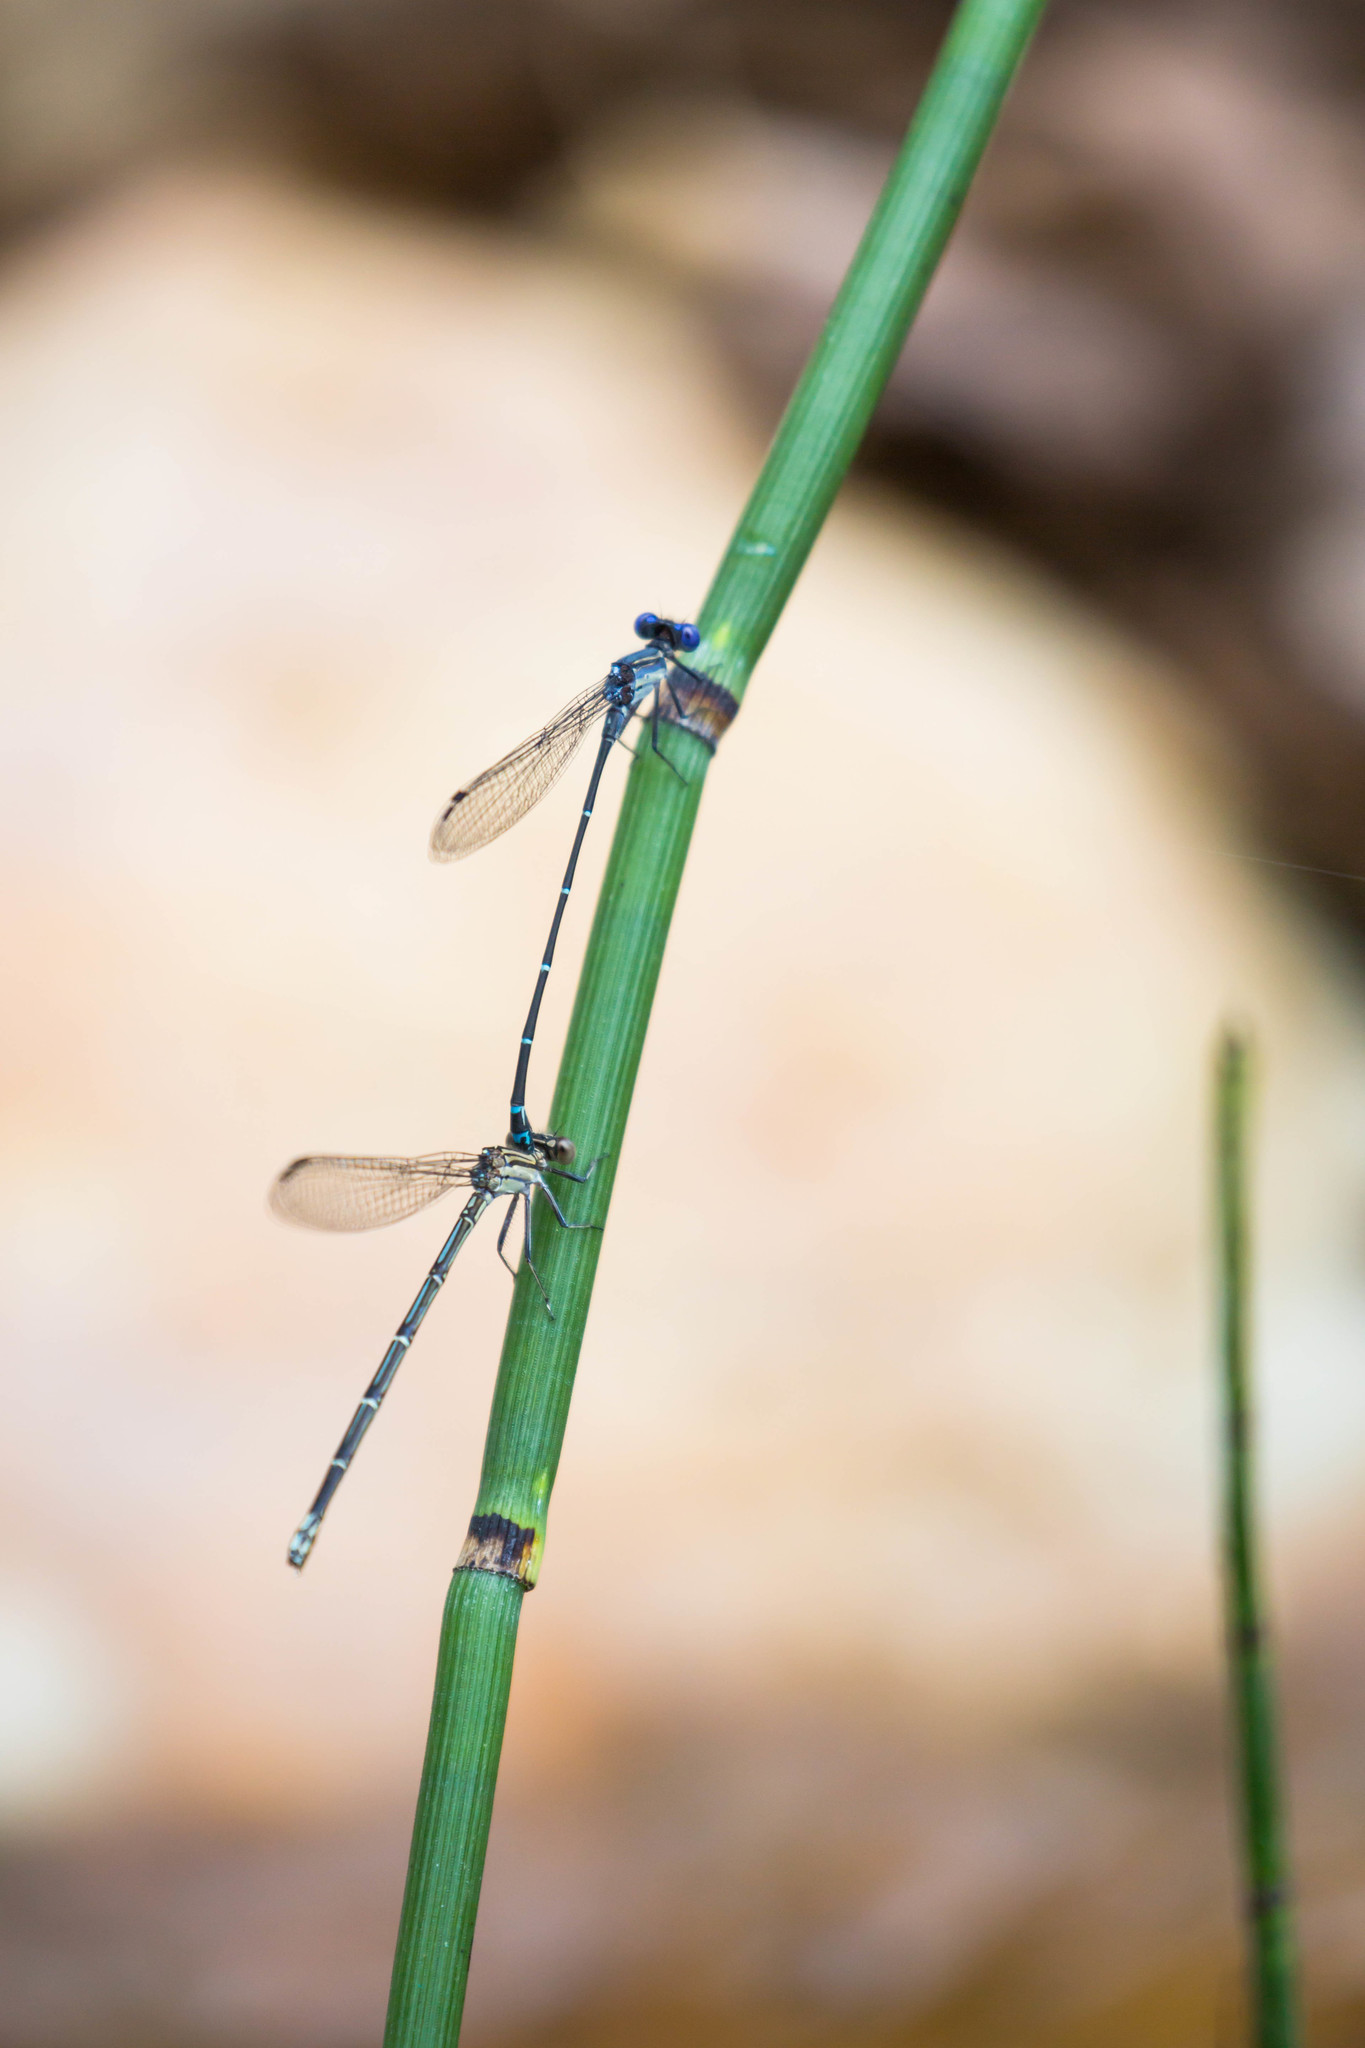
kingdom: Animalia
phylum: Arthropoda
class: Insecta
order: Odonata
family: Coenagrionidae
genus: Argia
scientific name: Argia translata
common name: Dusky dancer
